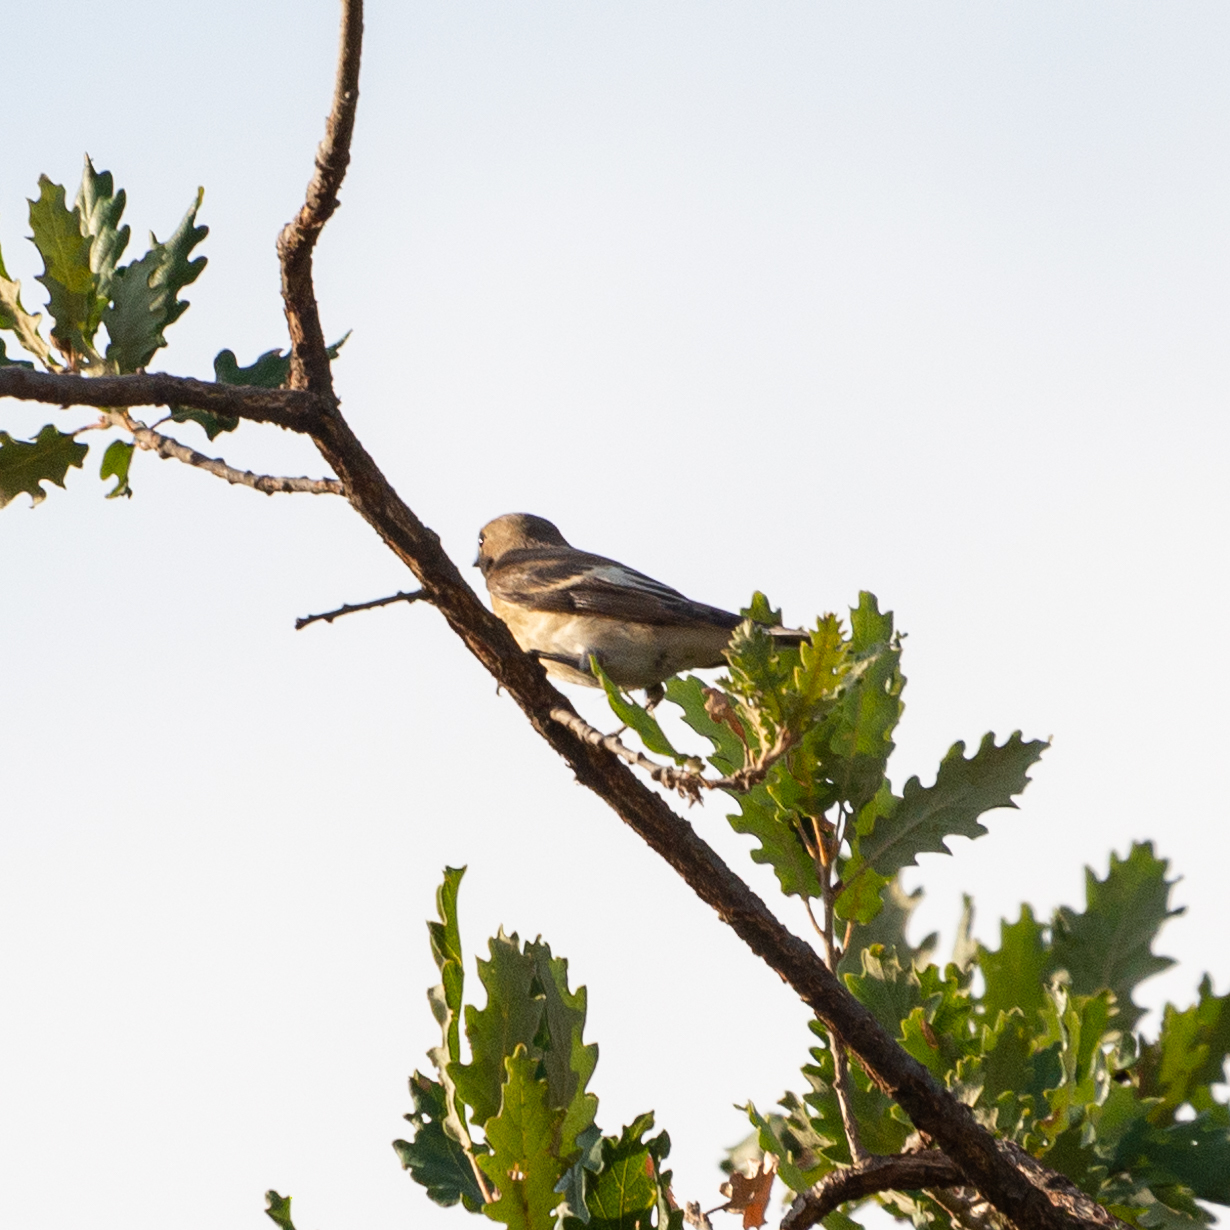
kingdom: Animalia
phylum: Chordata
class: Aves
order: Passeriformes
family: Muscicapidae
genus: Ficedula
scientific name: Ficedula hypoleuca
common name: European pied flycatcher
